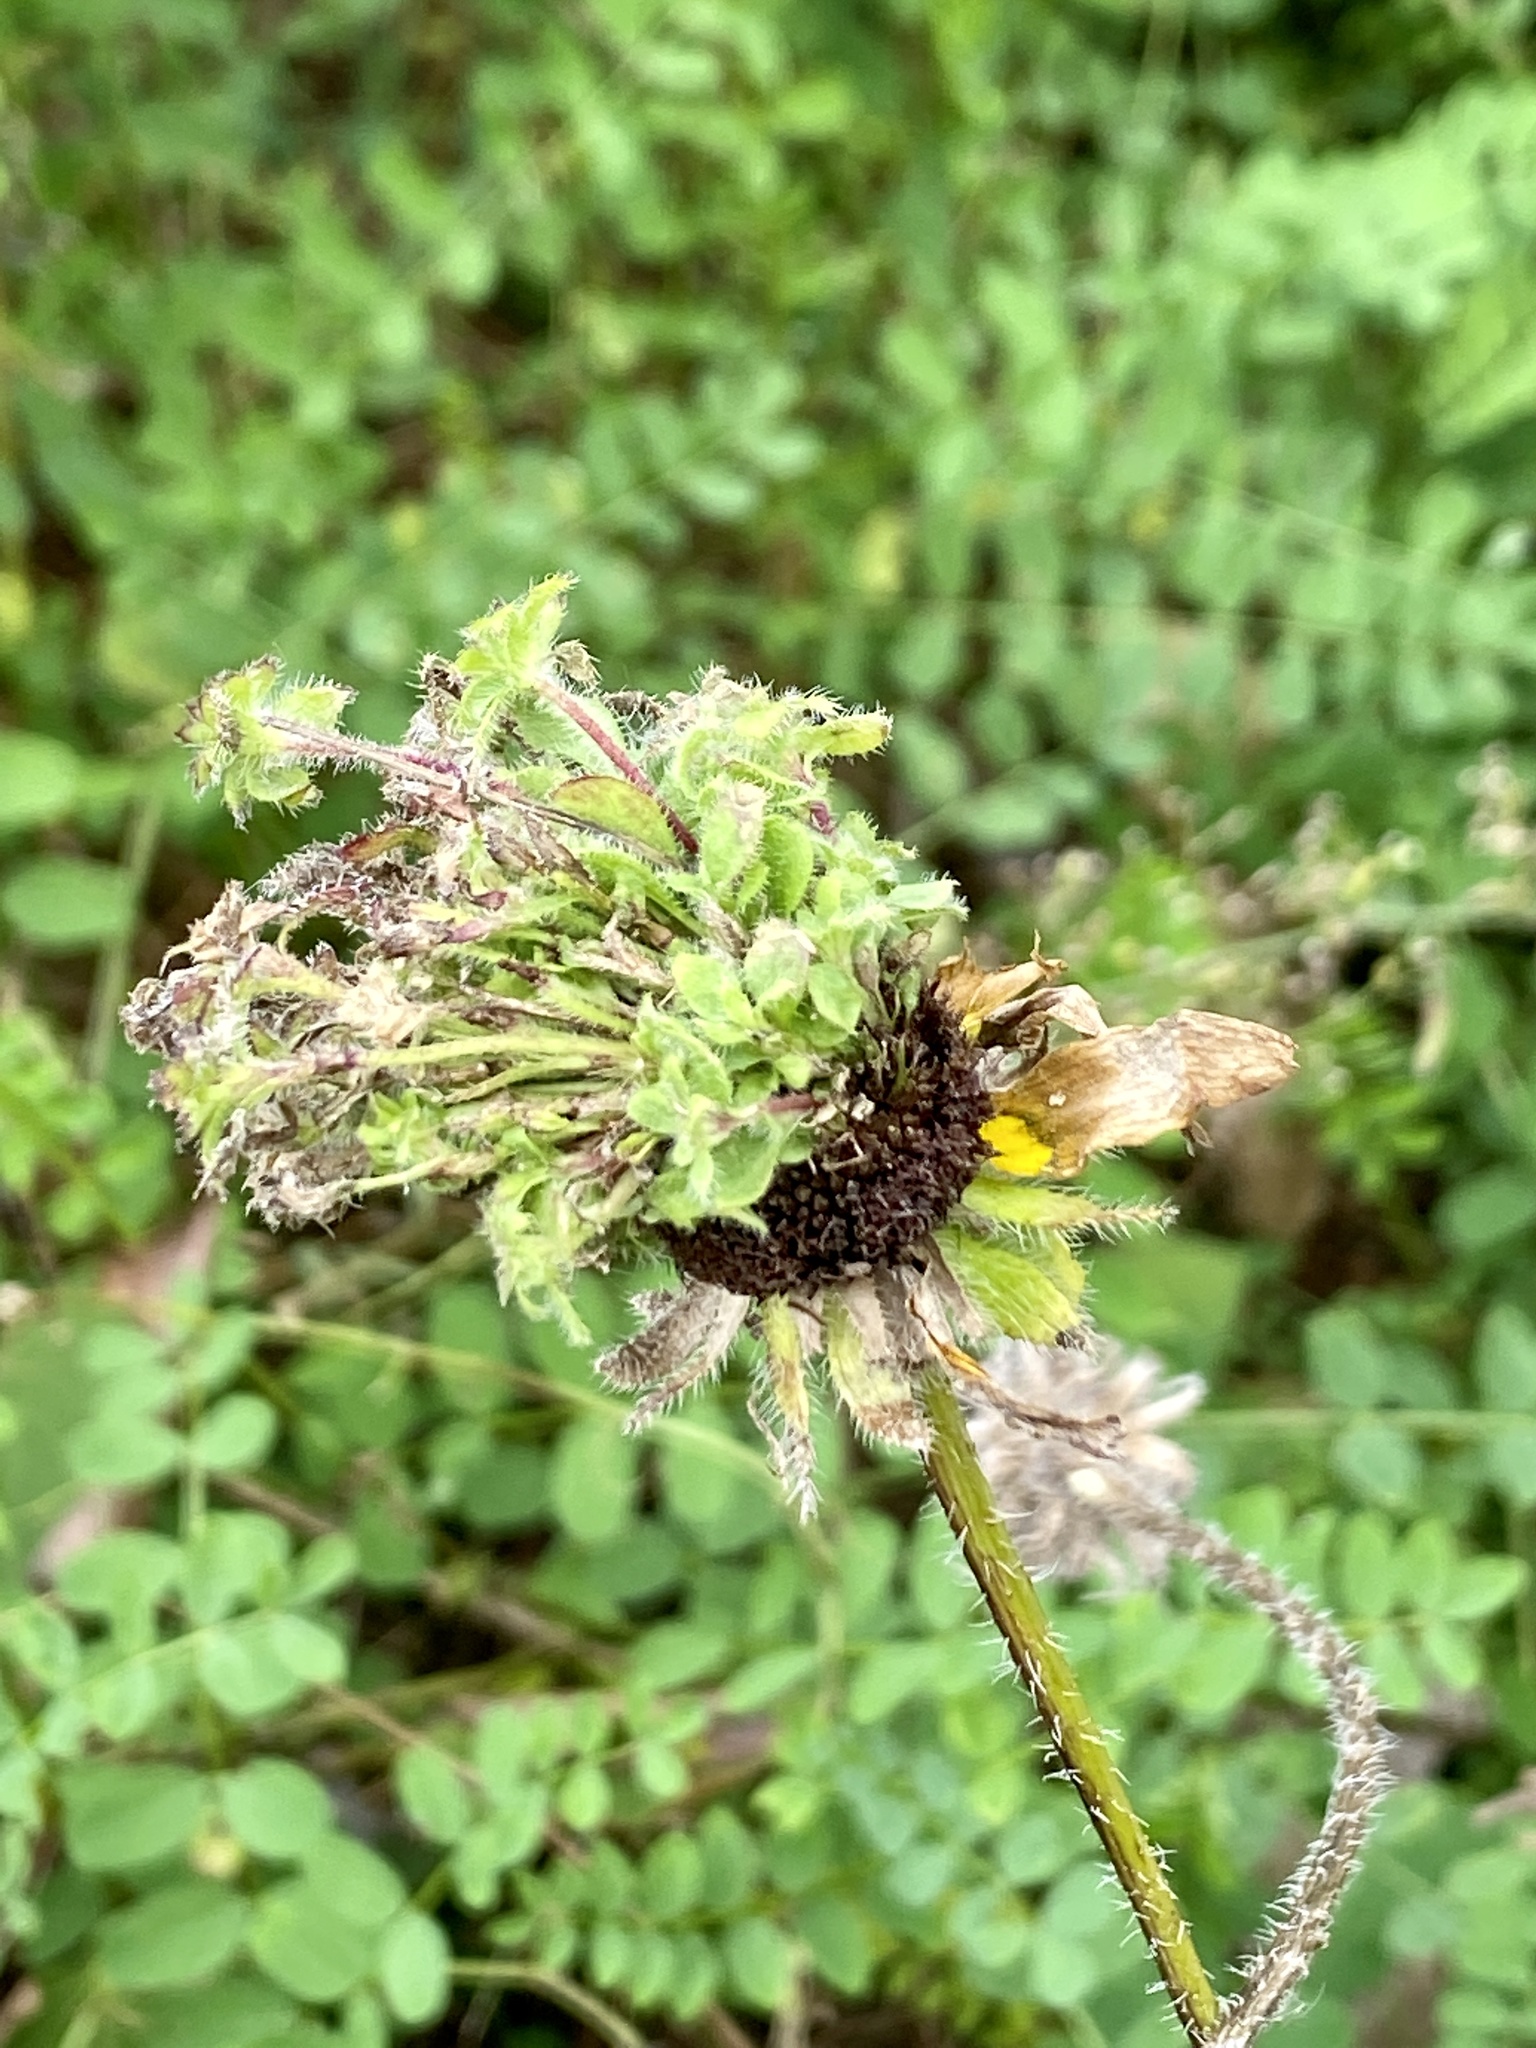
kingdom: Bacteria
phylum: Firmicutes
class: Bacilli
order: Acholeplasmatales
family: Acholeplasmataceae
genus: Phytoplasma
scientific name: Phytoplasma
